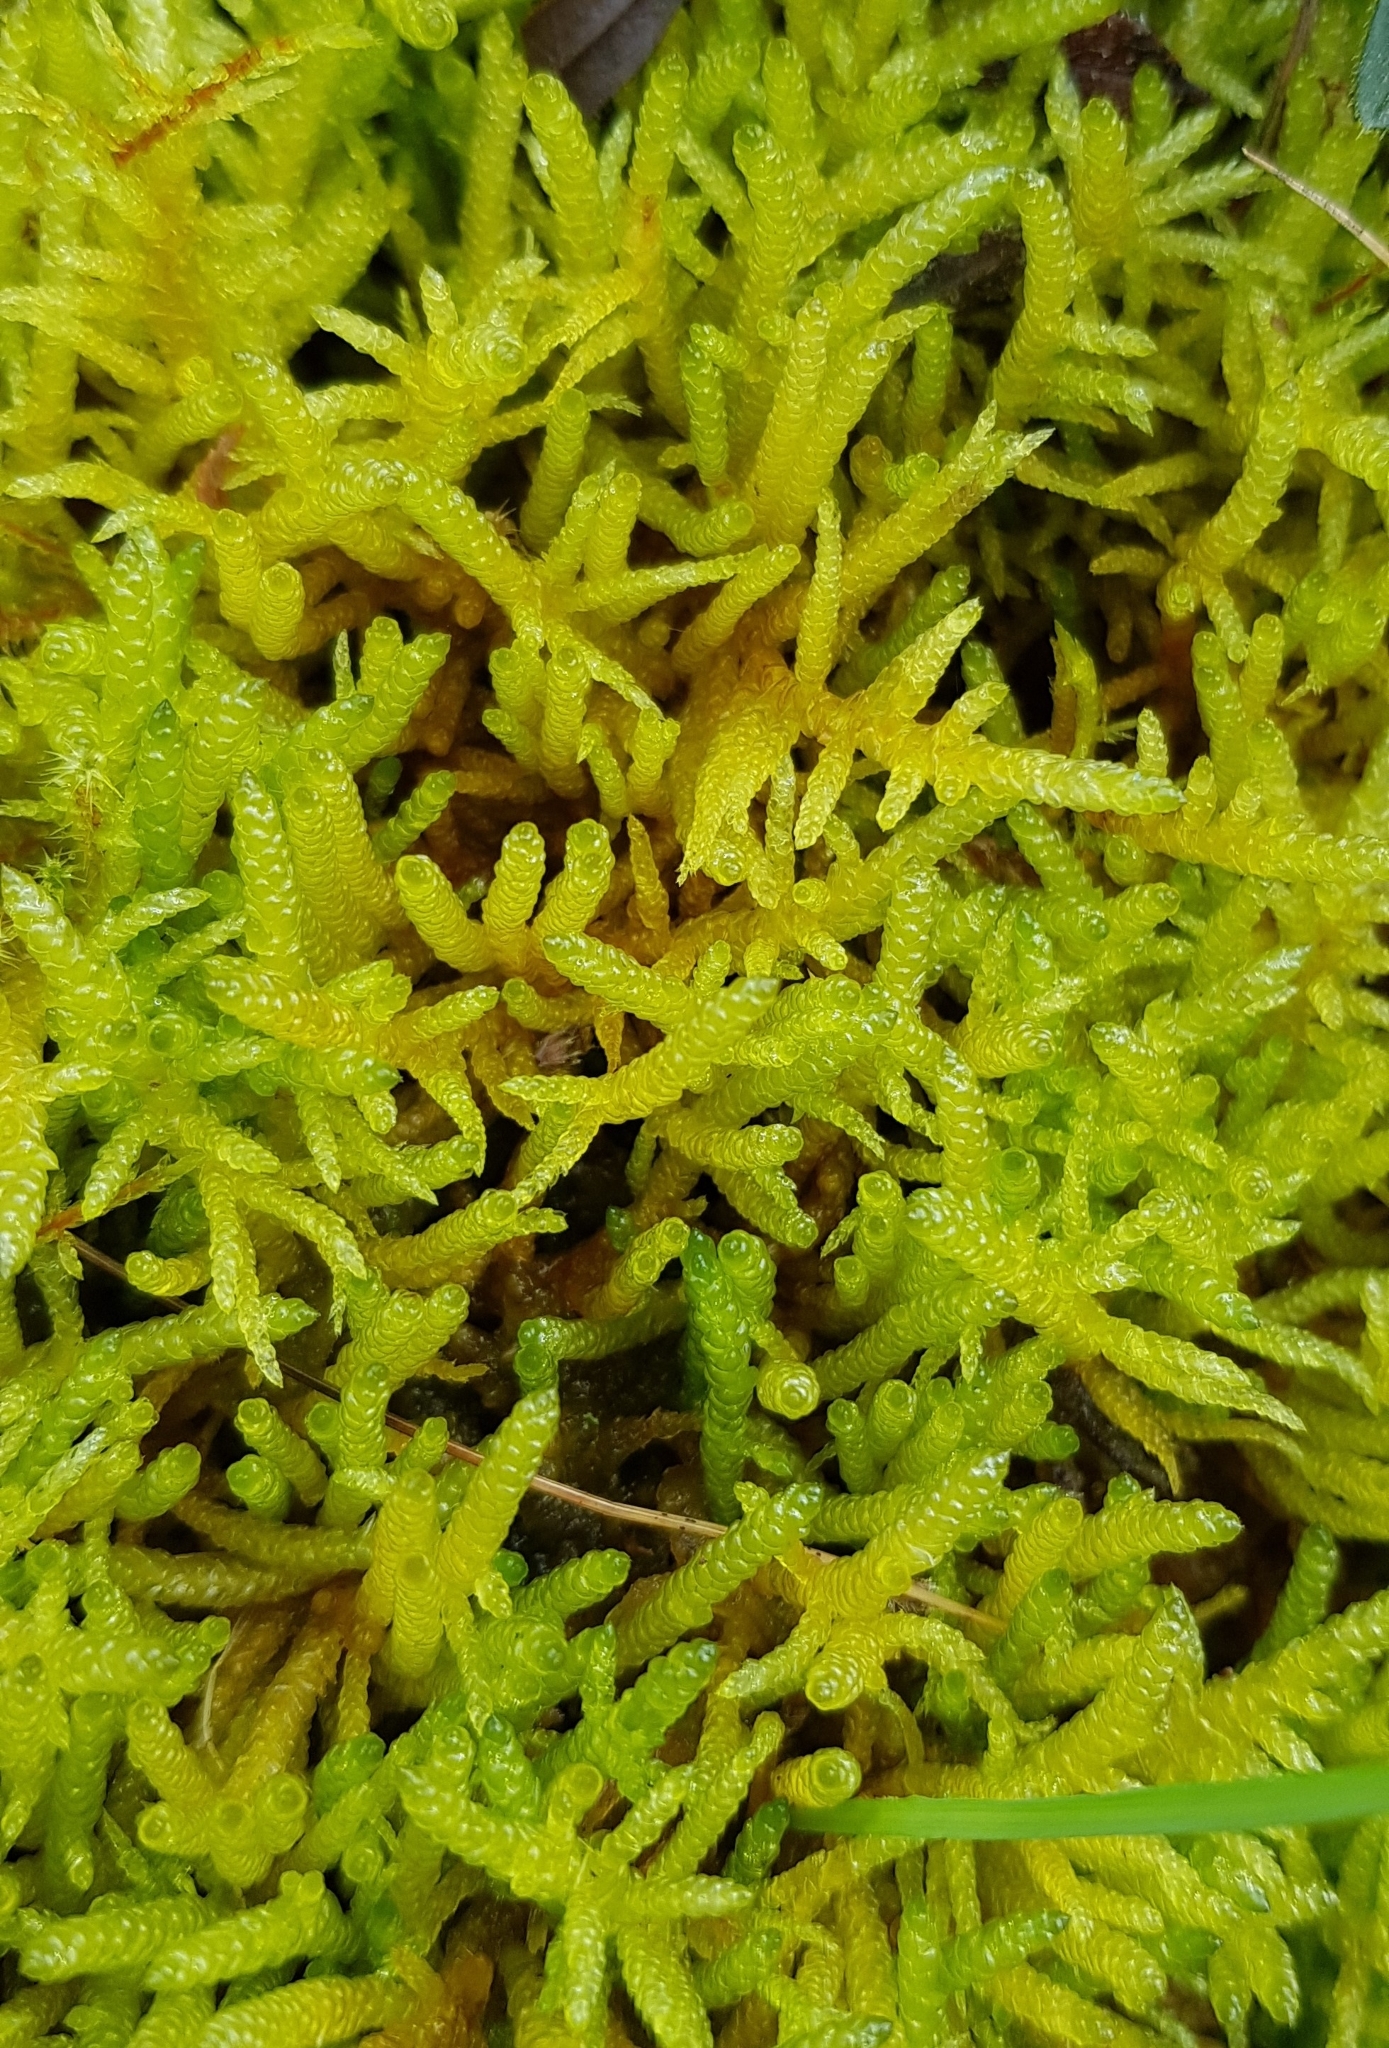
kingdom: Plantae
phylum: Bryophyta
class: Bryopsida
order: Hypnales
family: Brachytheciaceae
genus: Pseudoscleropodium
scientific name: Pseudoscleropodium purum
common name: Neat feather-moss
